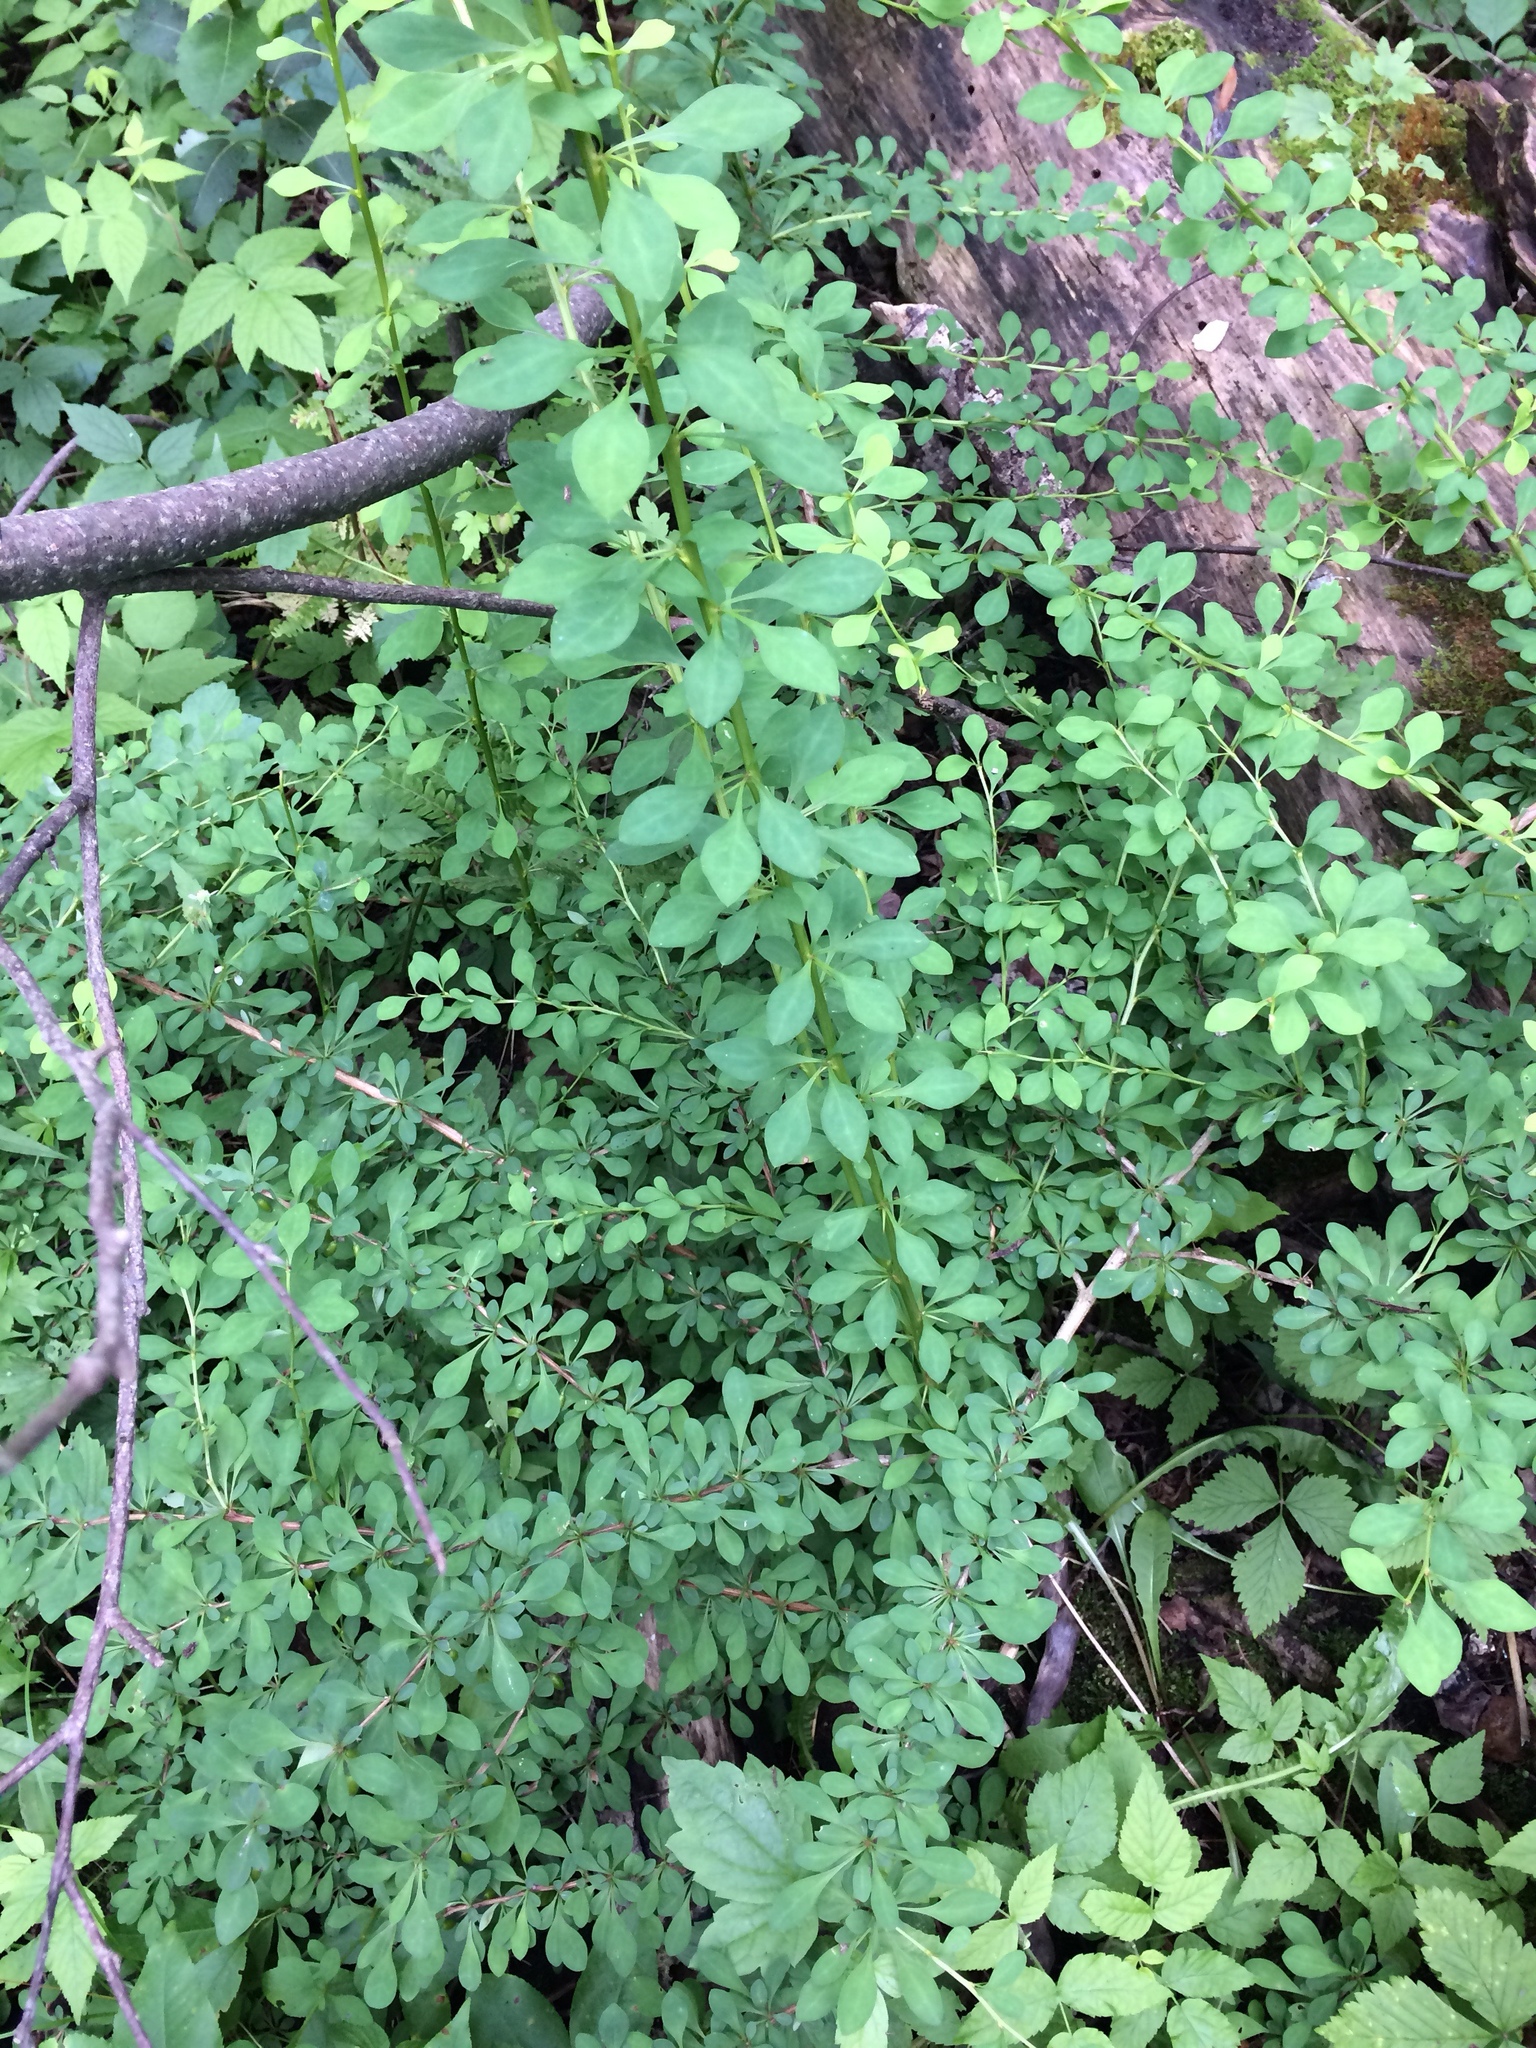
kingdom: Plantae
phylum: Tracheophyta
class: Magnoliopsida
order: Ranunculales
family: Berberidaceae
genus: Berberis
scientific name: Berberis thunbergii
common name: Japanese barberry
